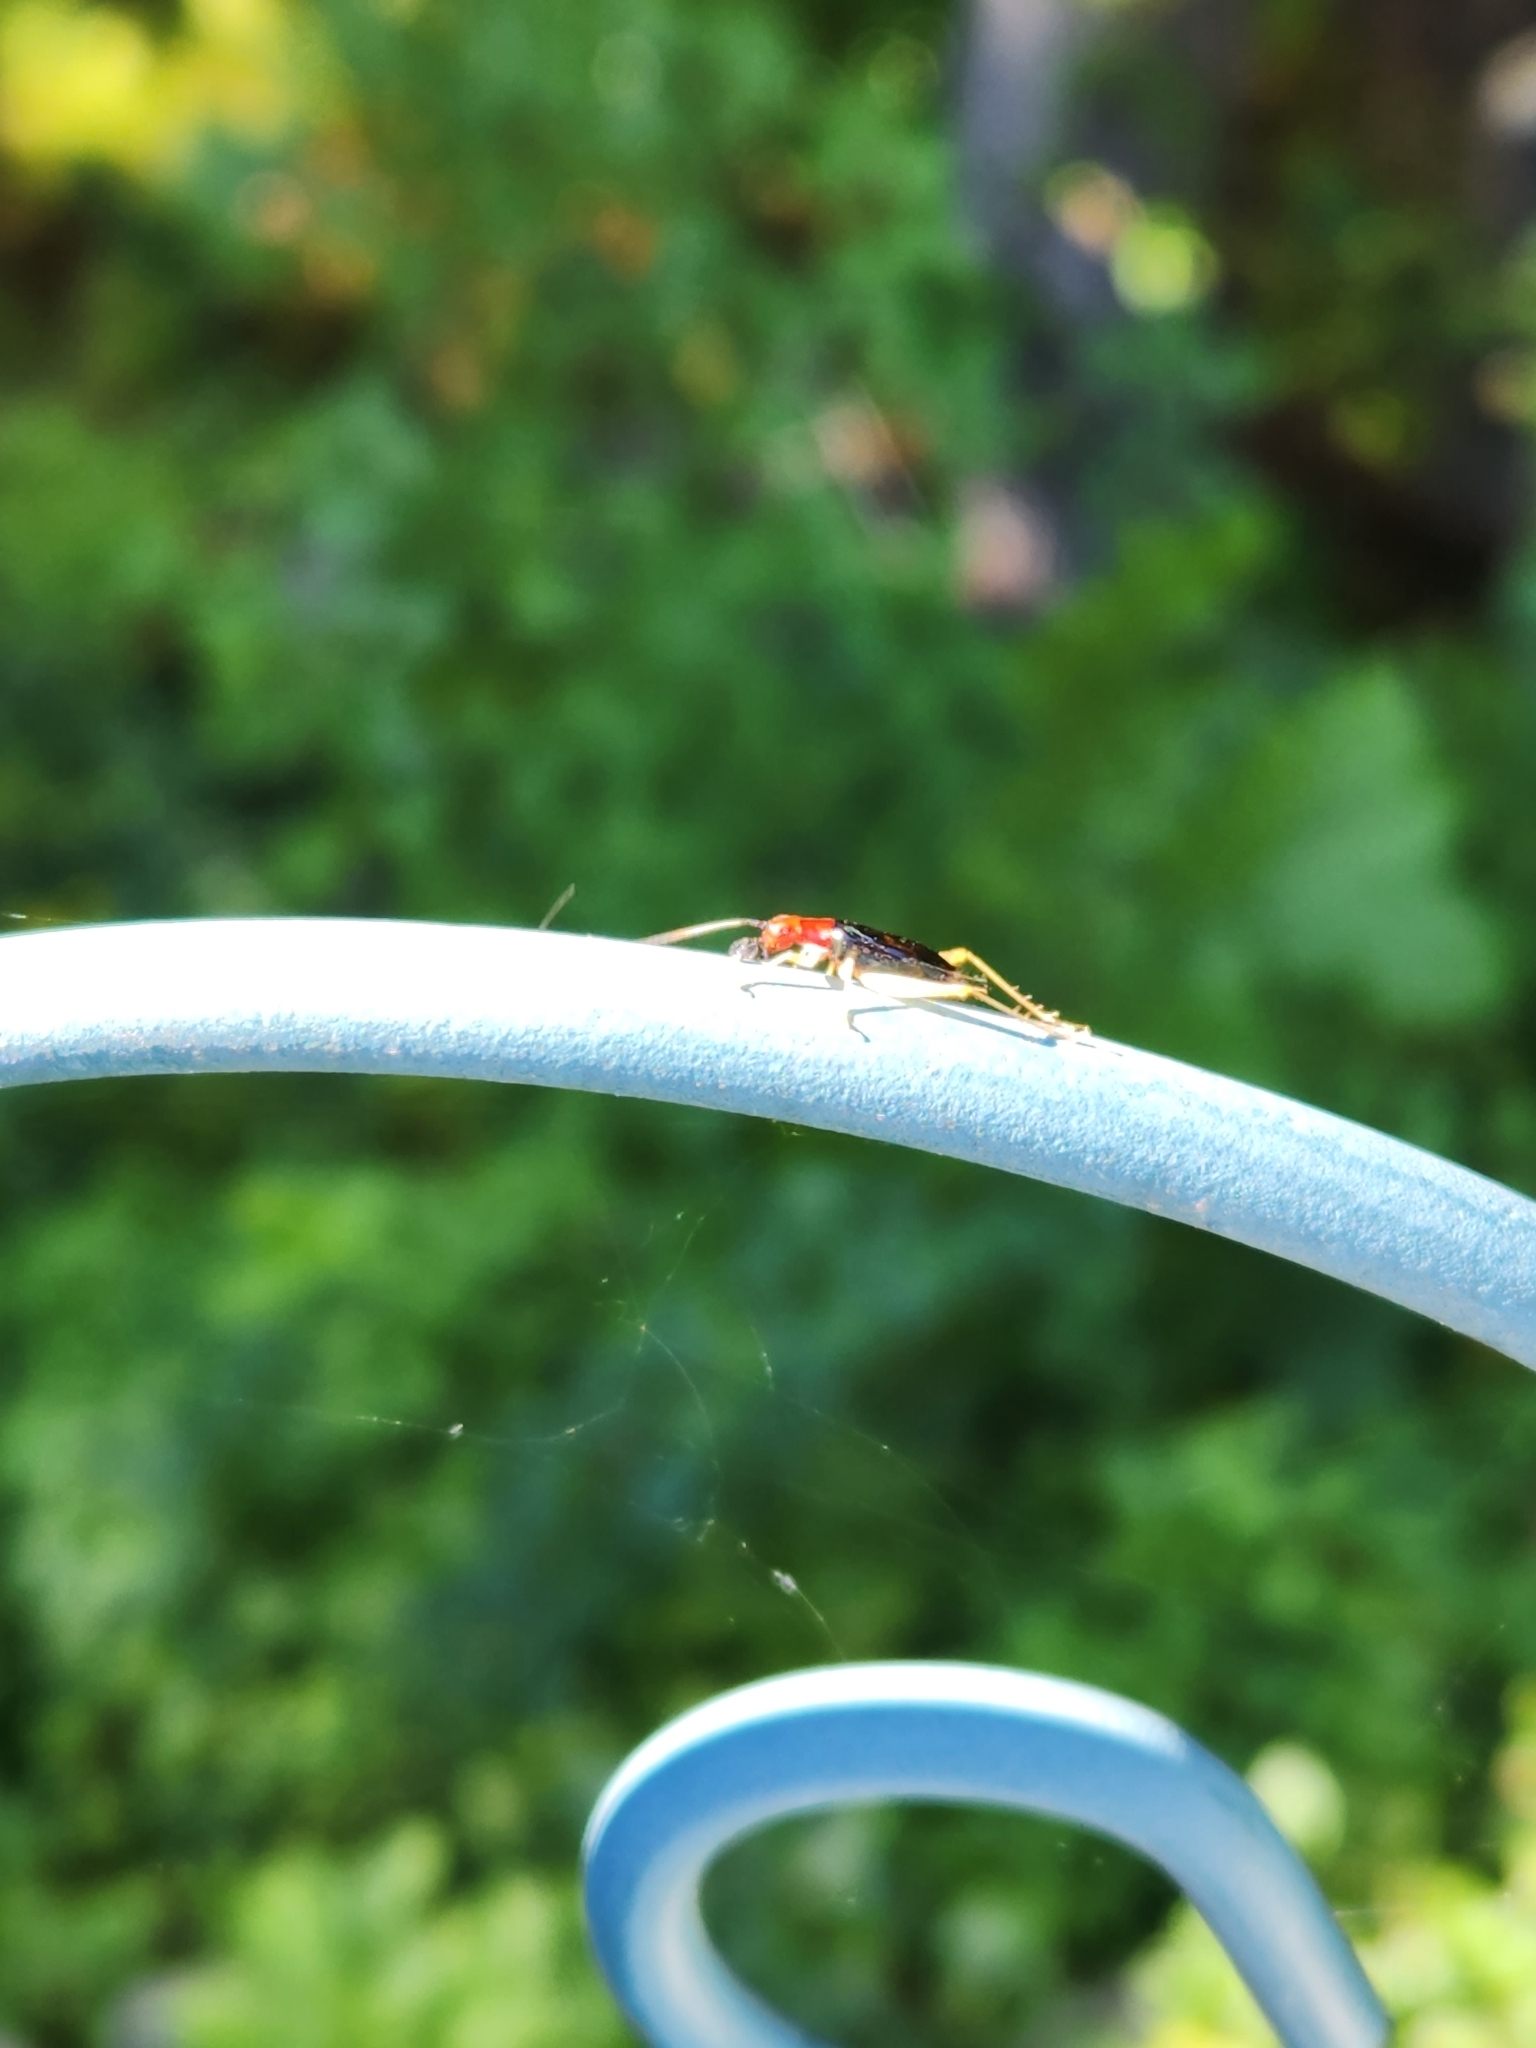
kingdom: Animalia
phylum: Arthropoda
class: Insecta
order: Orthoptera
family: Trigonidiidae
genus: Phyllopalpus
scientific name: Phyllopalpus pulchellus
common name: Handsome trig
